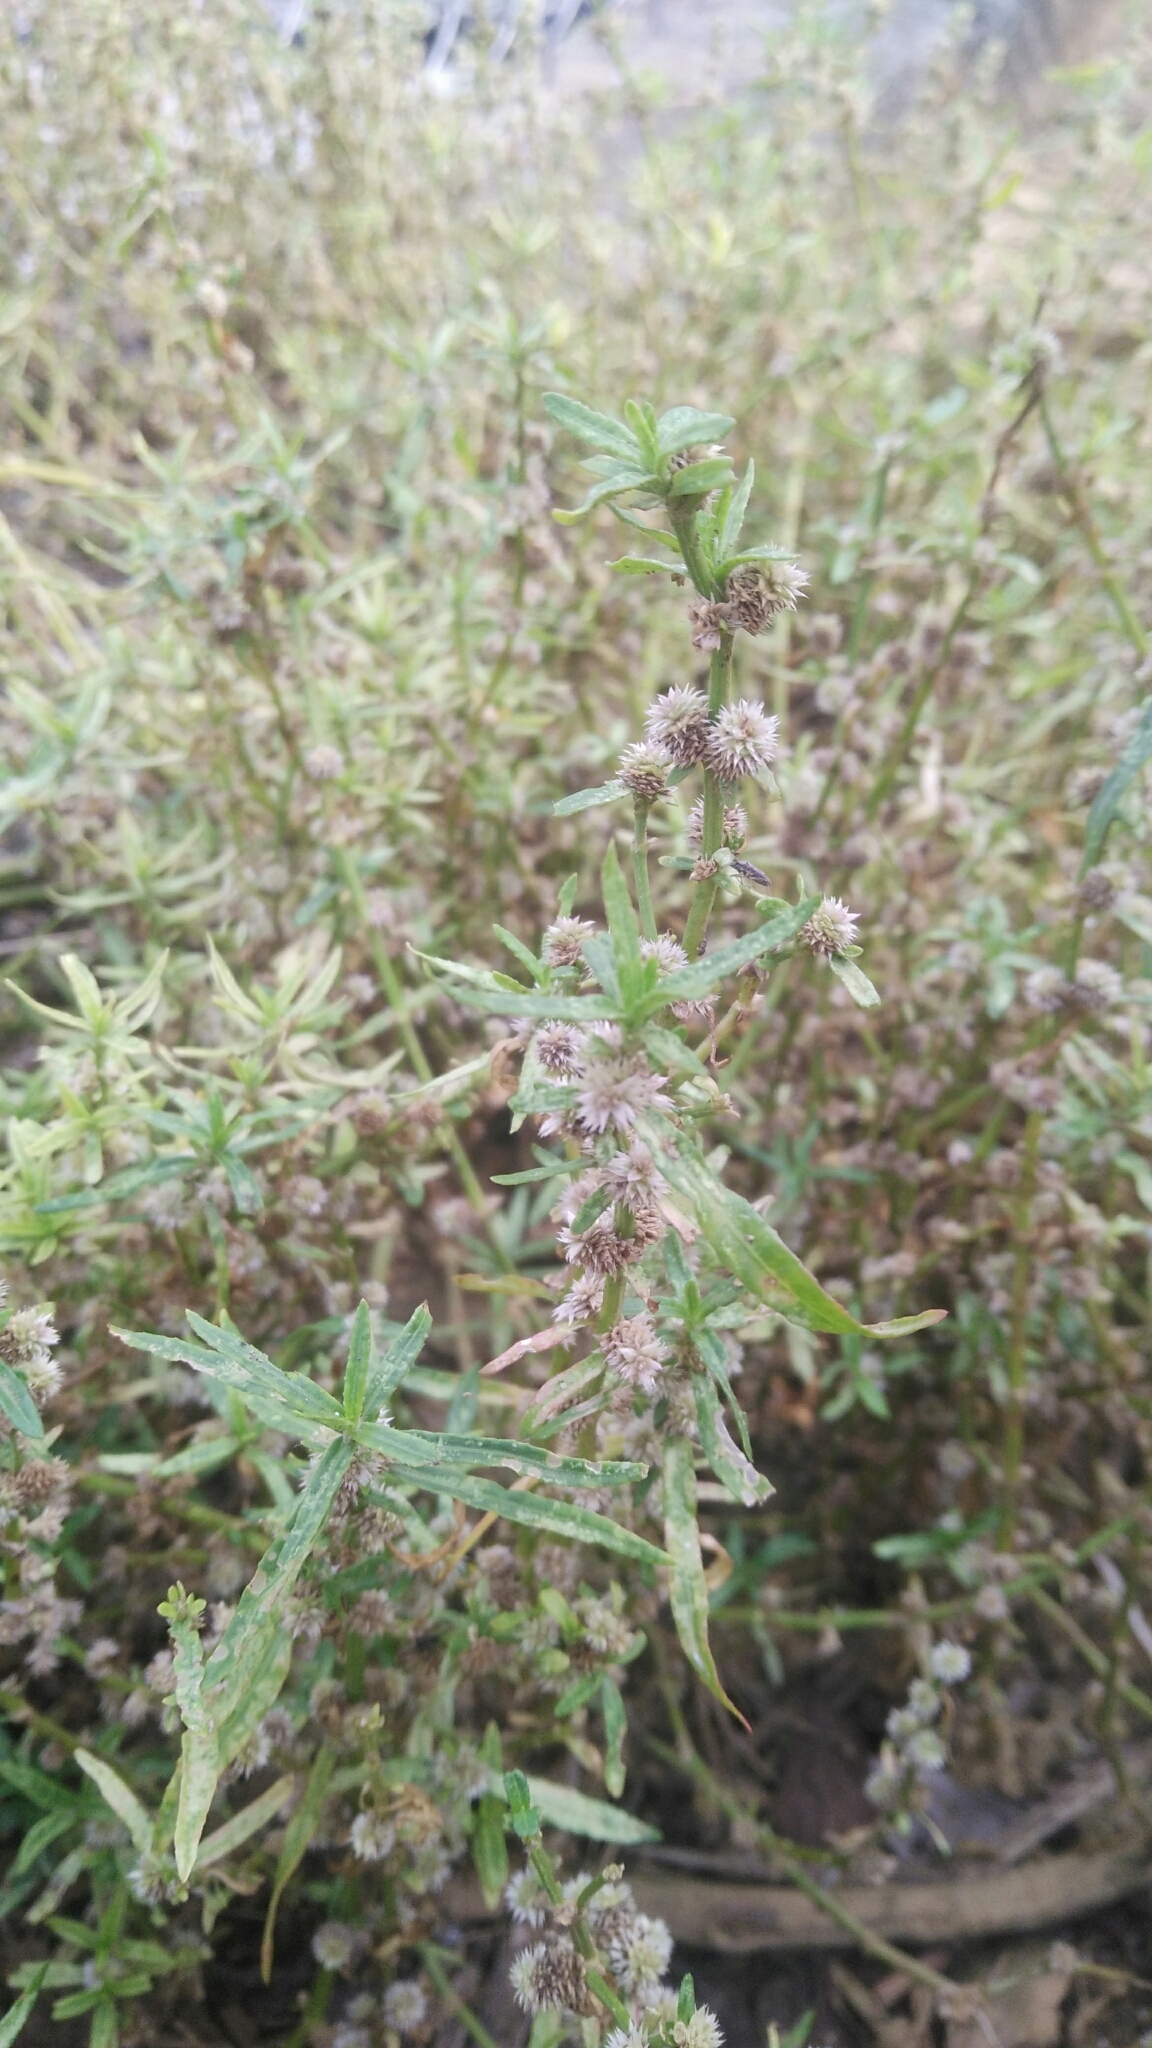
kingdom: Plantae
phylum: Tracheophyta
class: Magnoliopsida
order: Caryophyllales
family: Amaranthaceae
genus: Alternanthera
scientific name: Alternanthera sessilis
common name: Sessile joyweed
